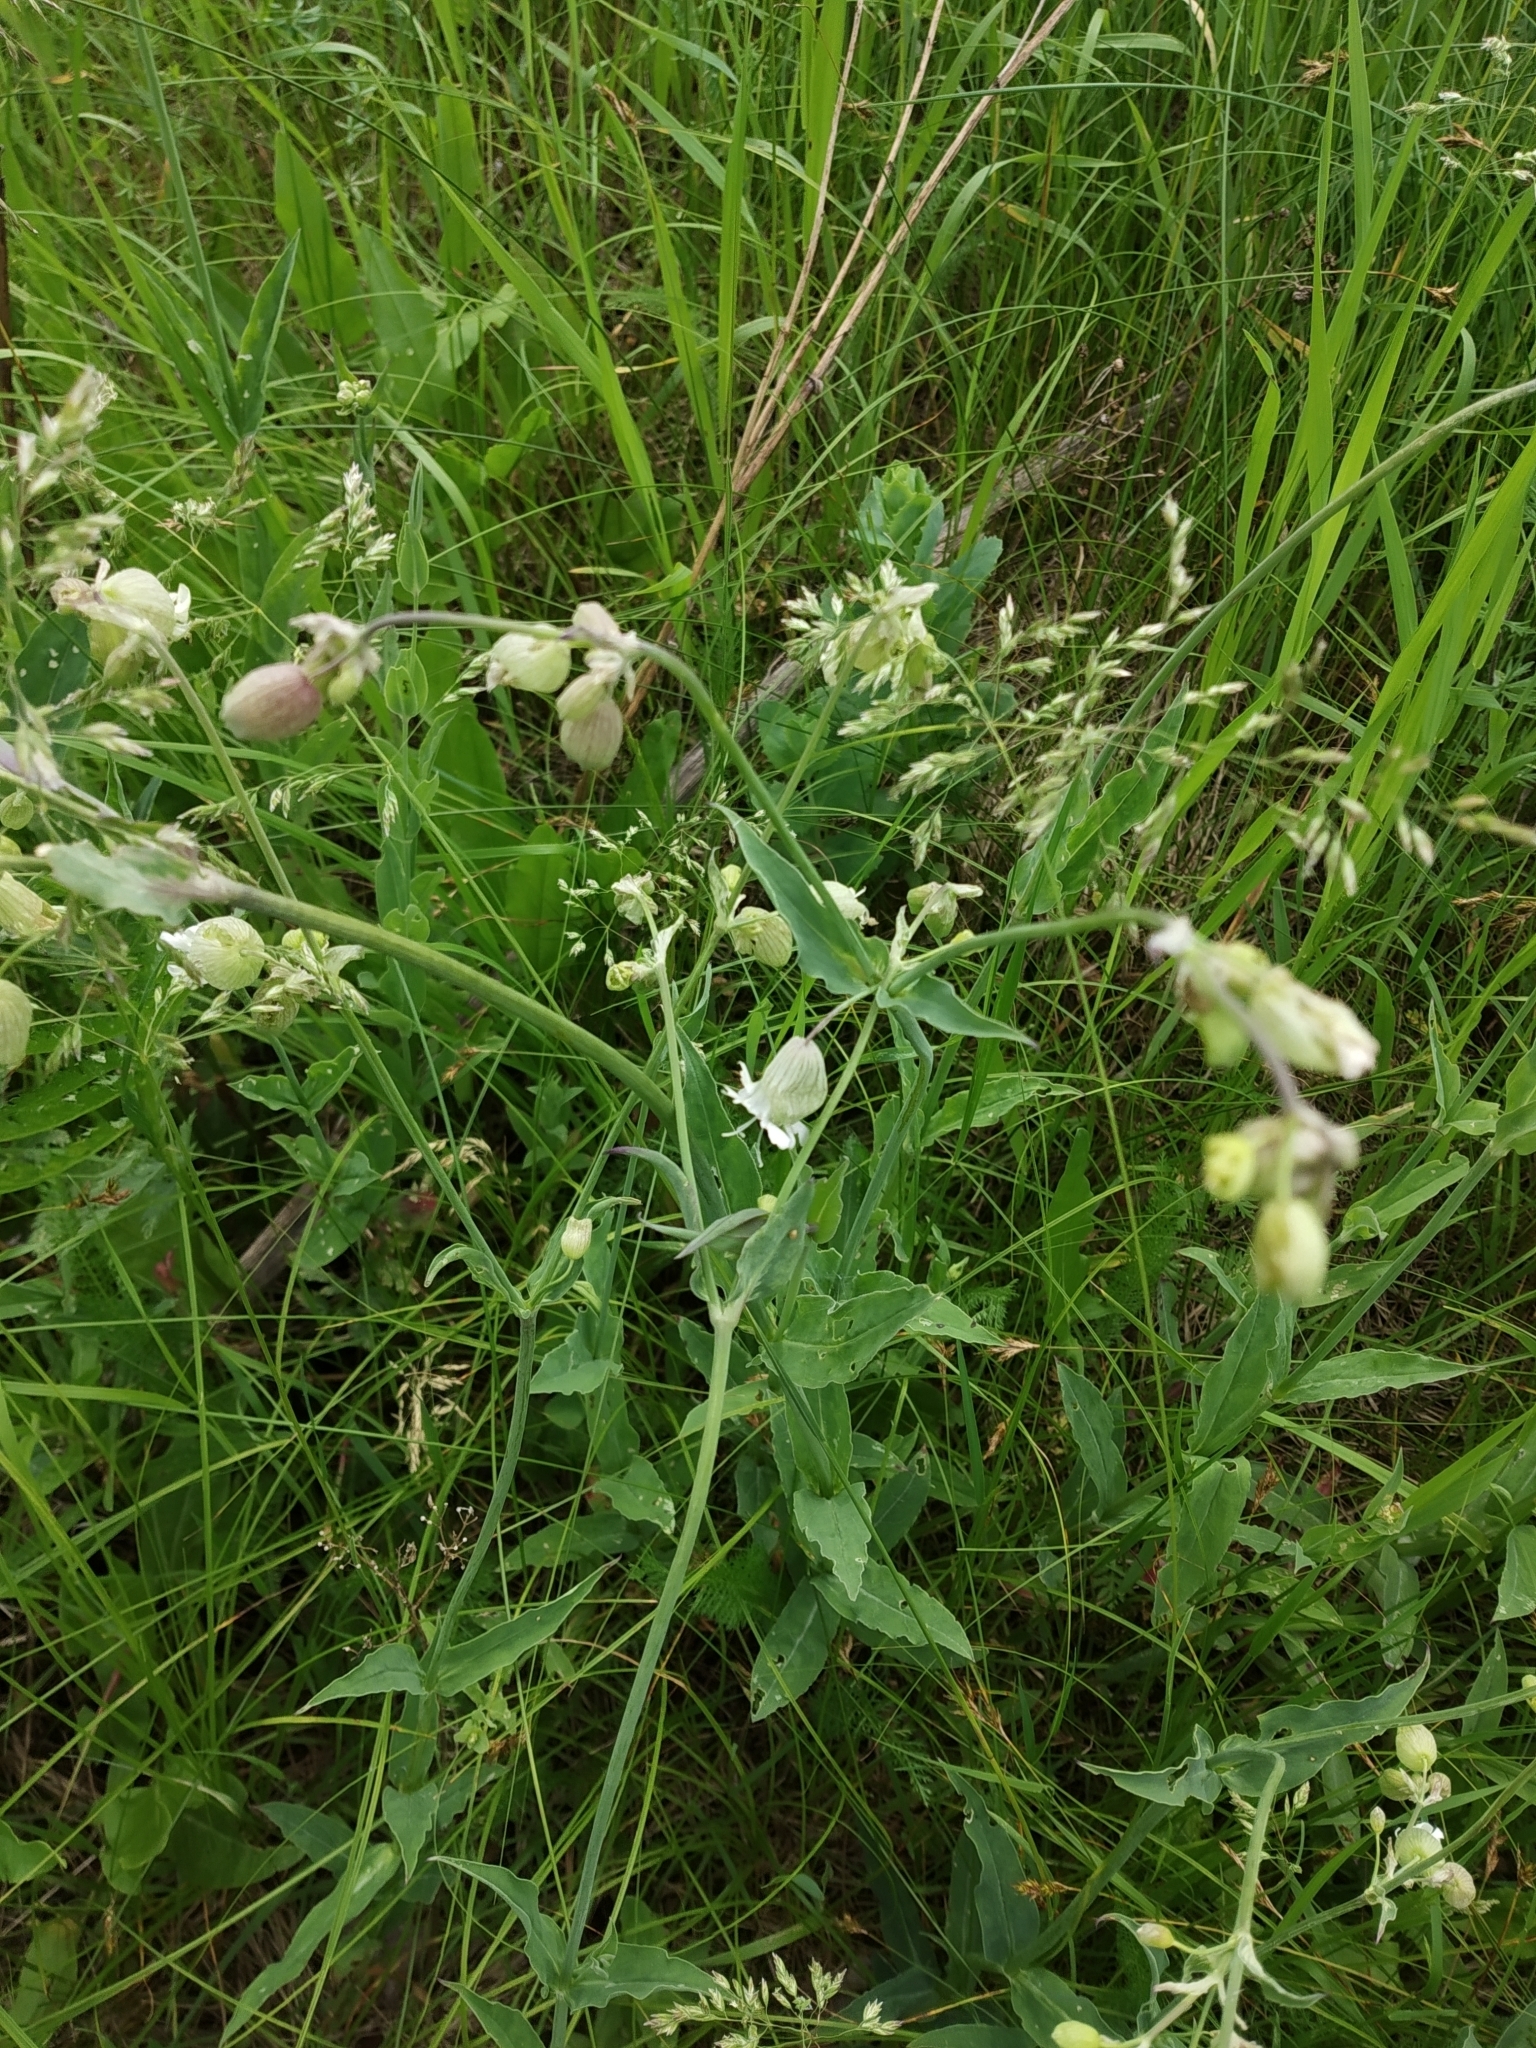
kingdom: Plantae
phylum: Tracheophyta
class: Magnoliopsida
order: Caryophyllales
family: Caryophyllaceae
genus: Silene
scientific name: Silene vulgaris
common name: Bladder campion
